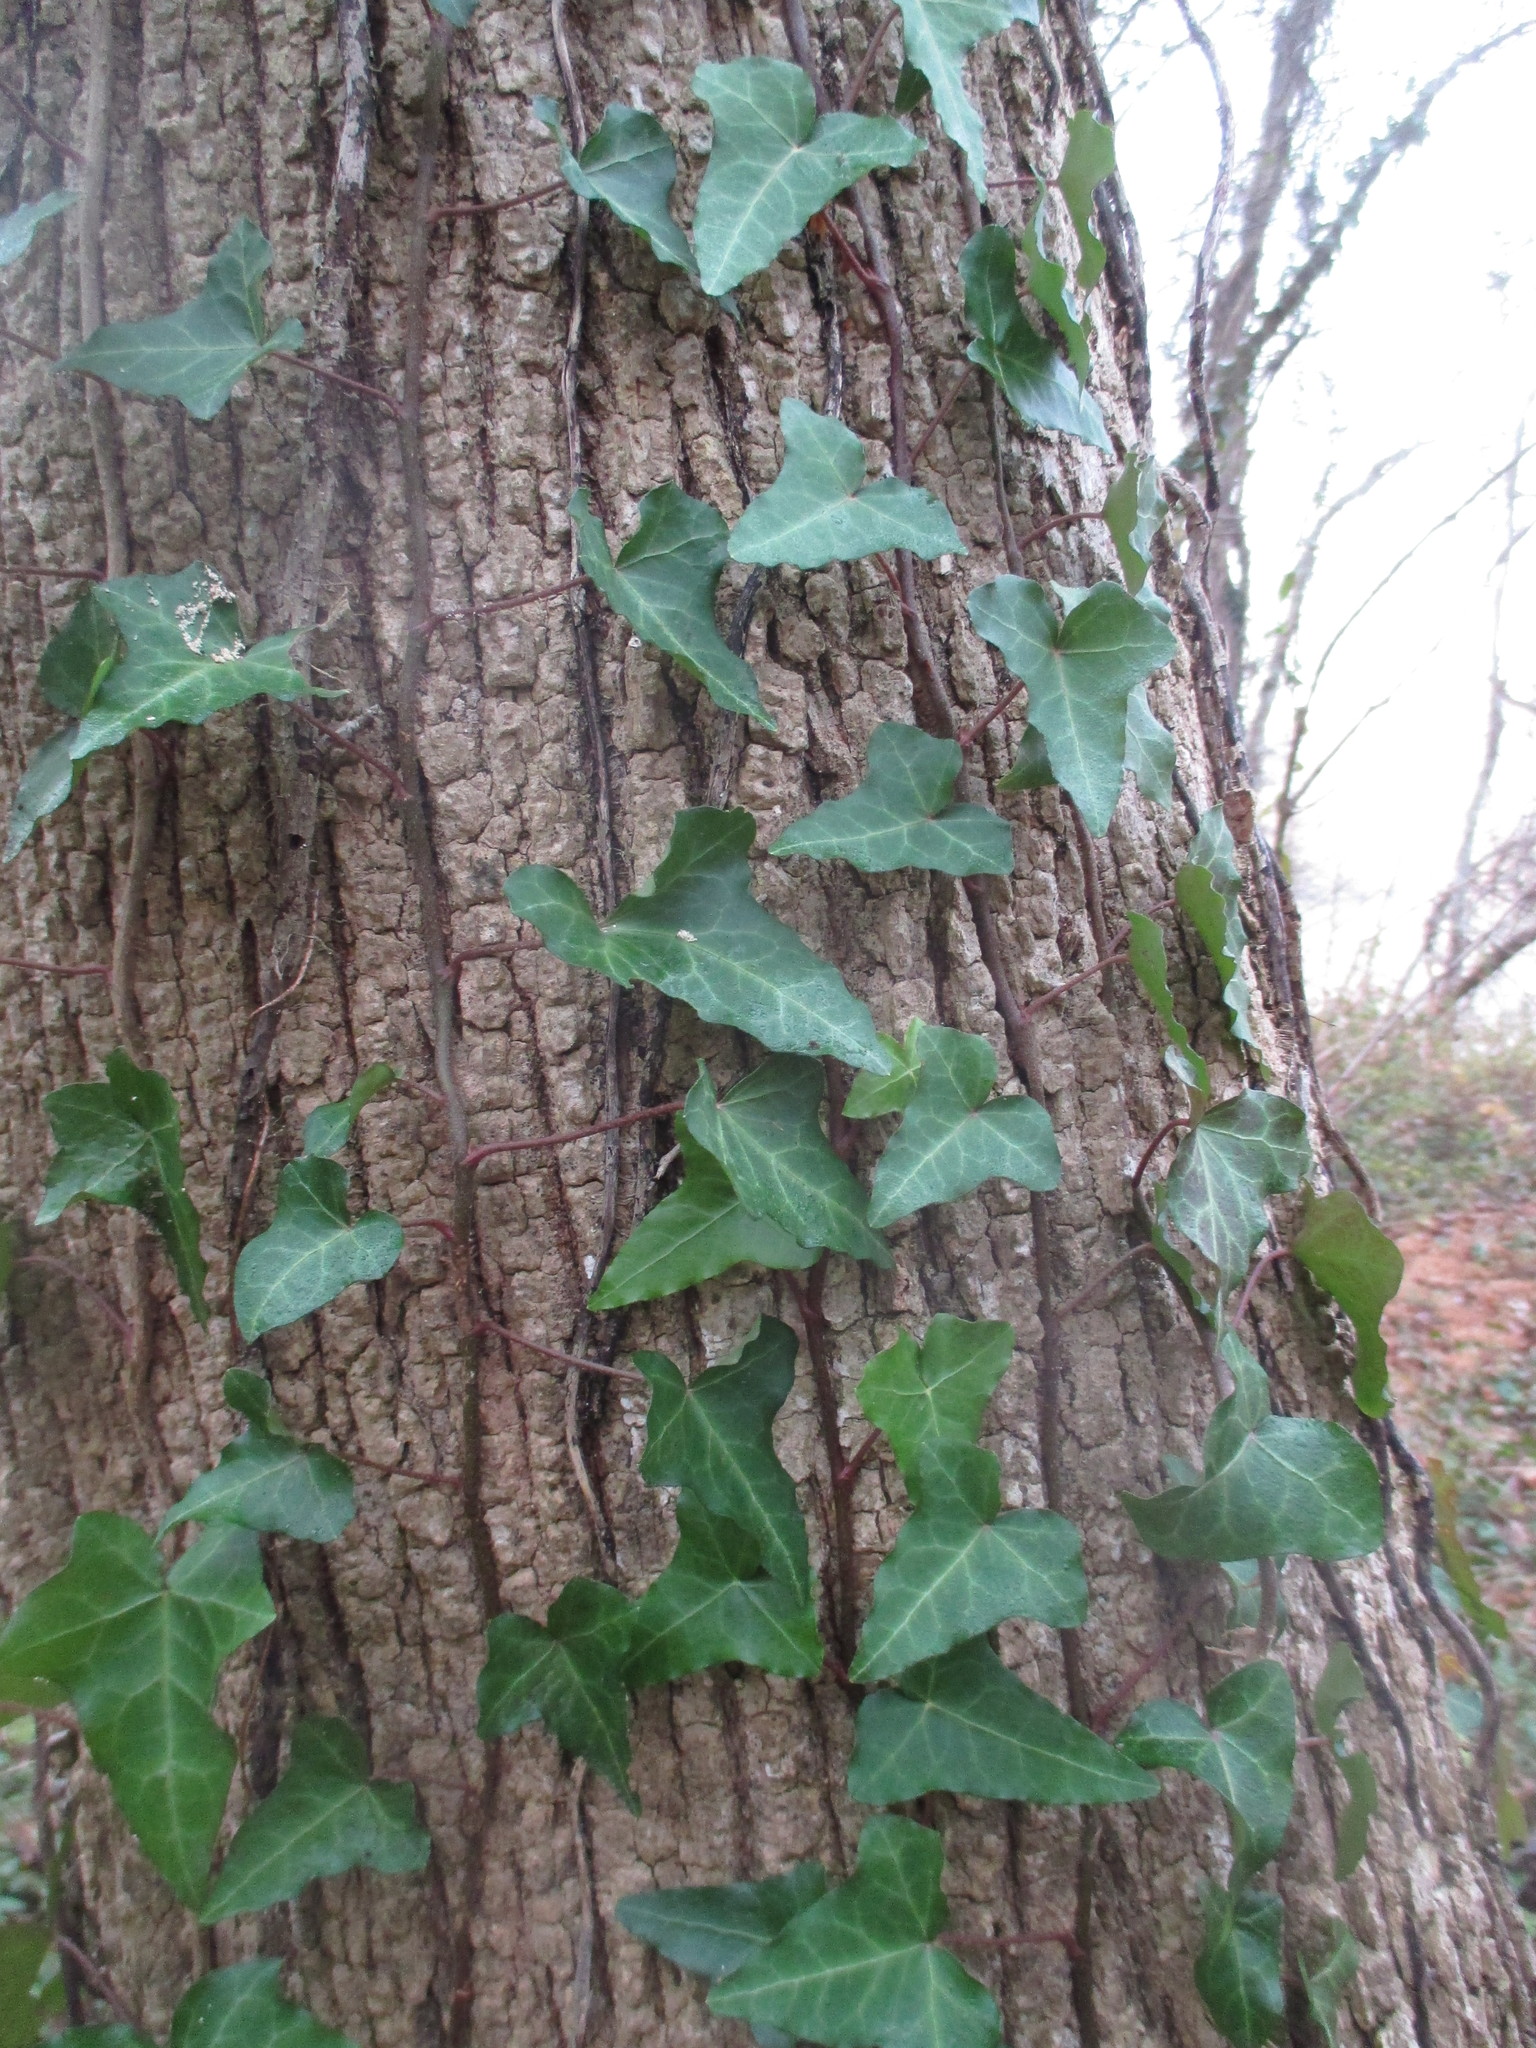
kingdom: Plantae
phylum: Tracheophyta
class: Magnoliopsida
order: Apiales
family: Araliaceae
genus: Hedera
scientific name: Hedera helix
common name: Ivy
